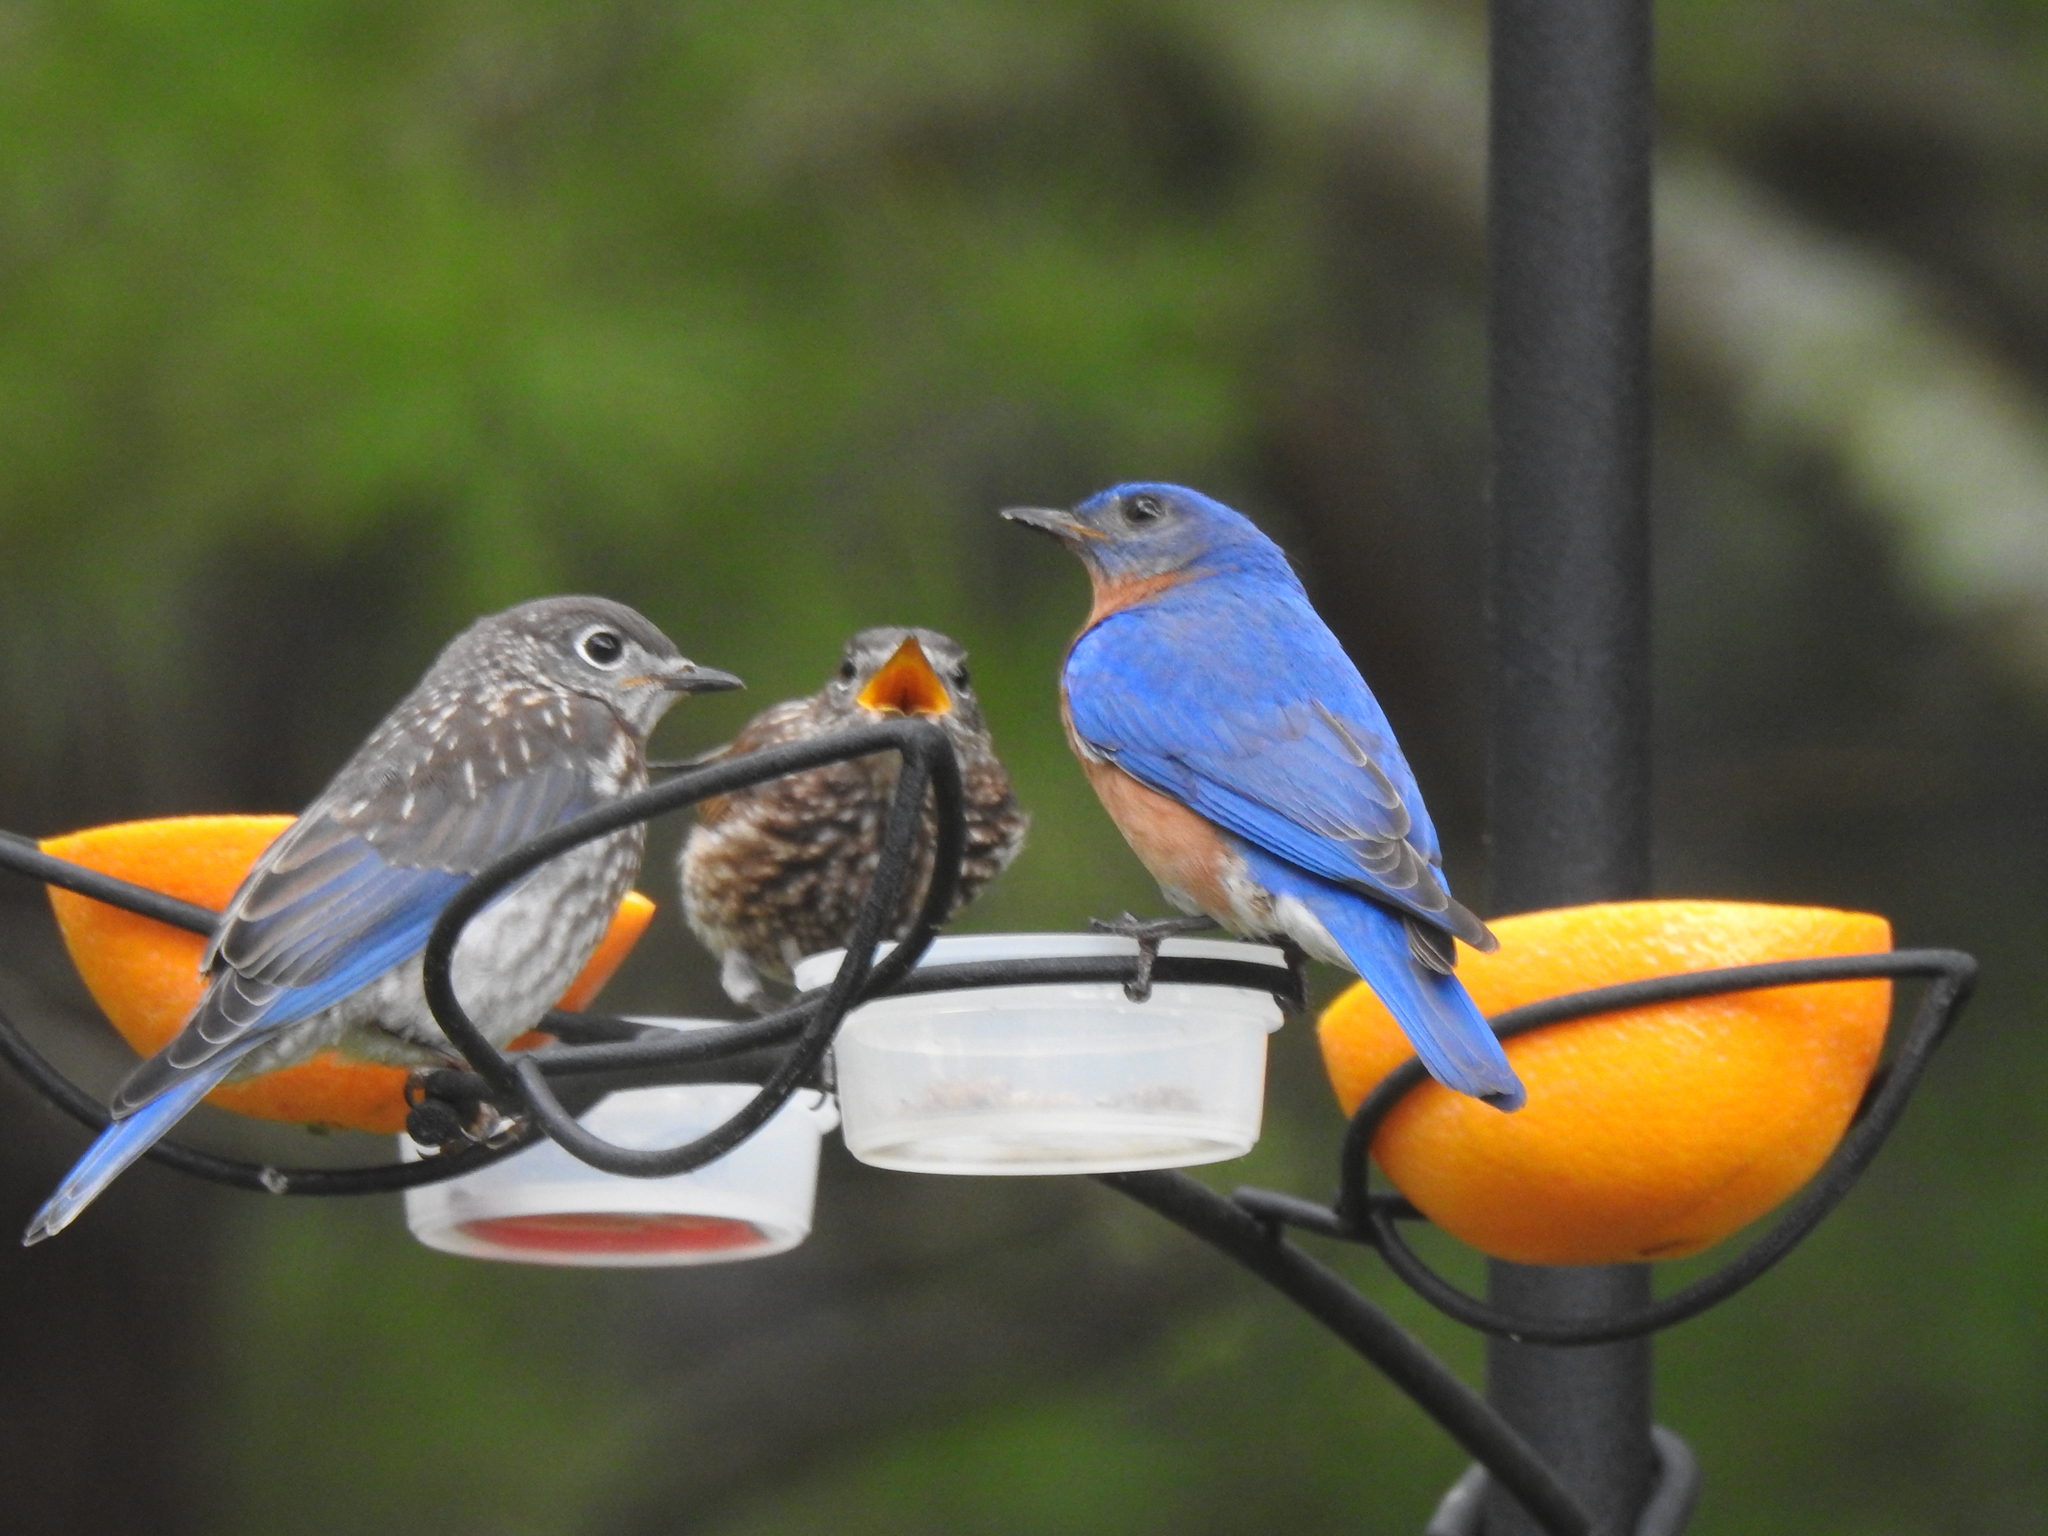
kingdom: Animalia
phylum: Chordata
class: Aves
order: Passeriformes
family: Turdidae
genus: Sialia
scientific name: Sialia sialis
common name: Eastern bluebird
